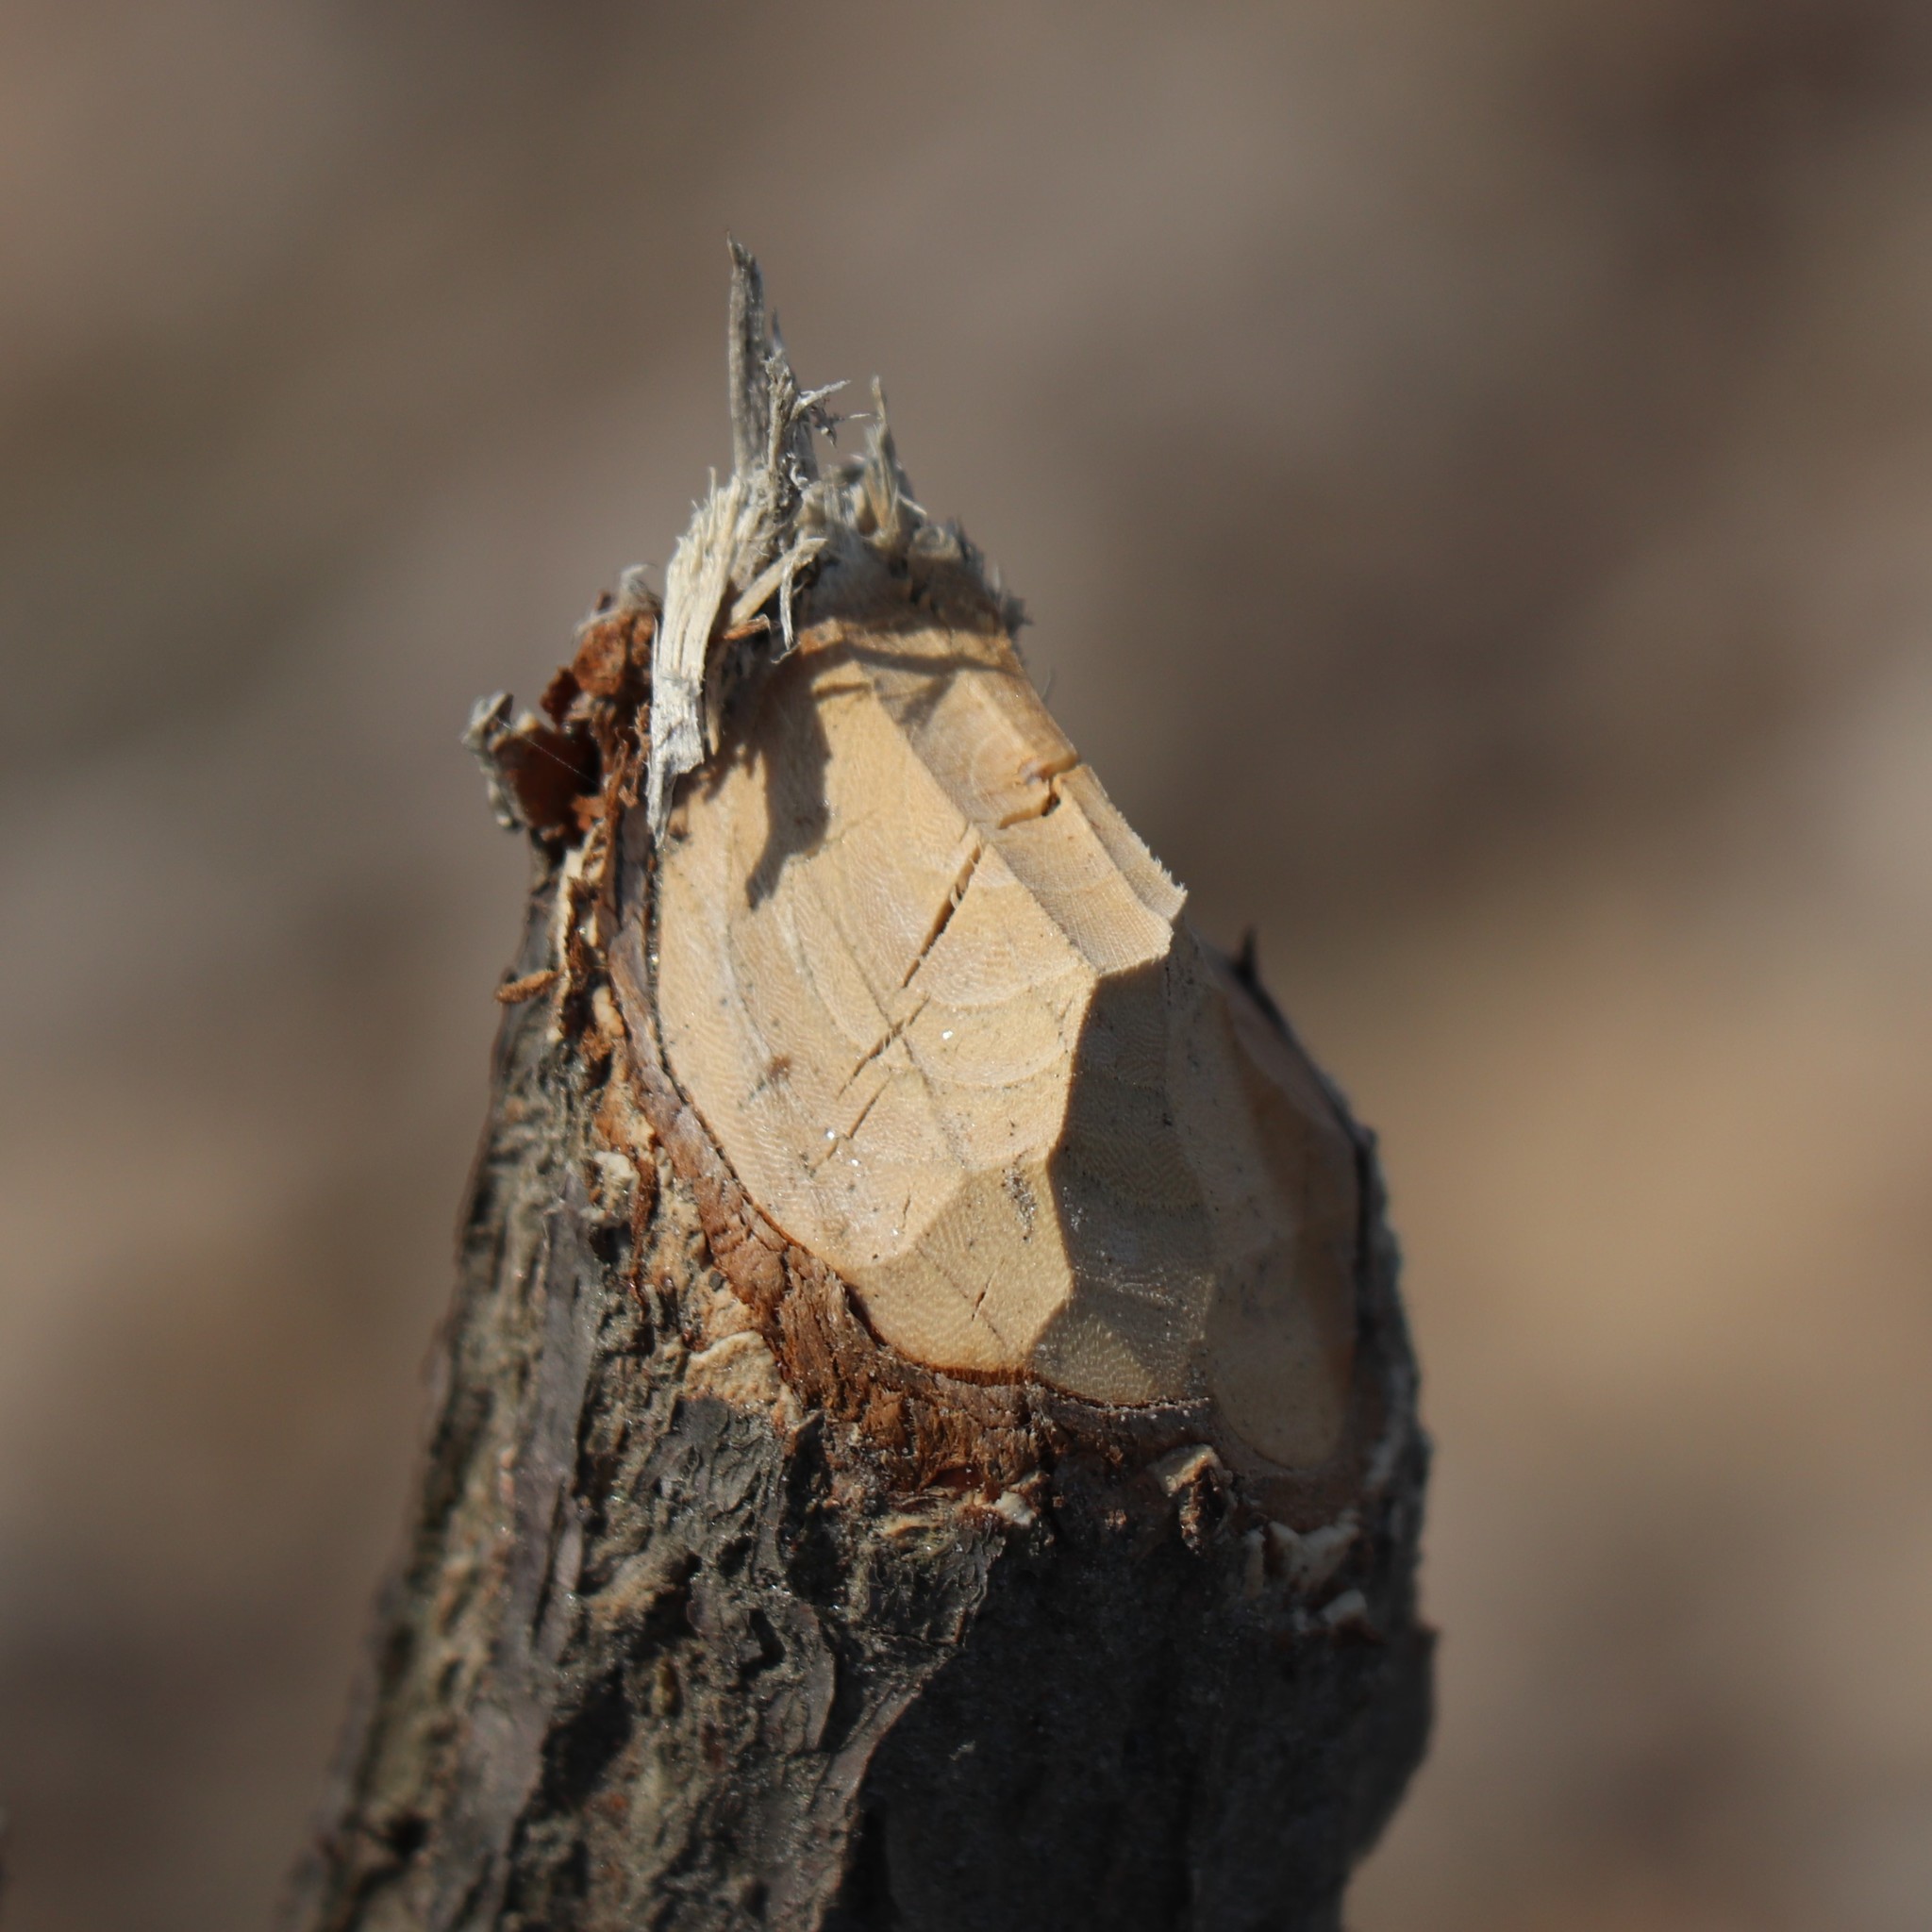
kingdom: Animalia
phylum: Chordata
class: Mammalia
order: Rodentia
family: Castoridae
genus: Castor
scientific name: Castor canadensis
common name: American beaver
